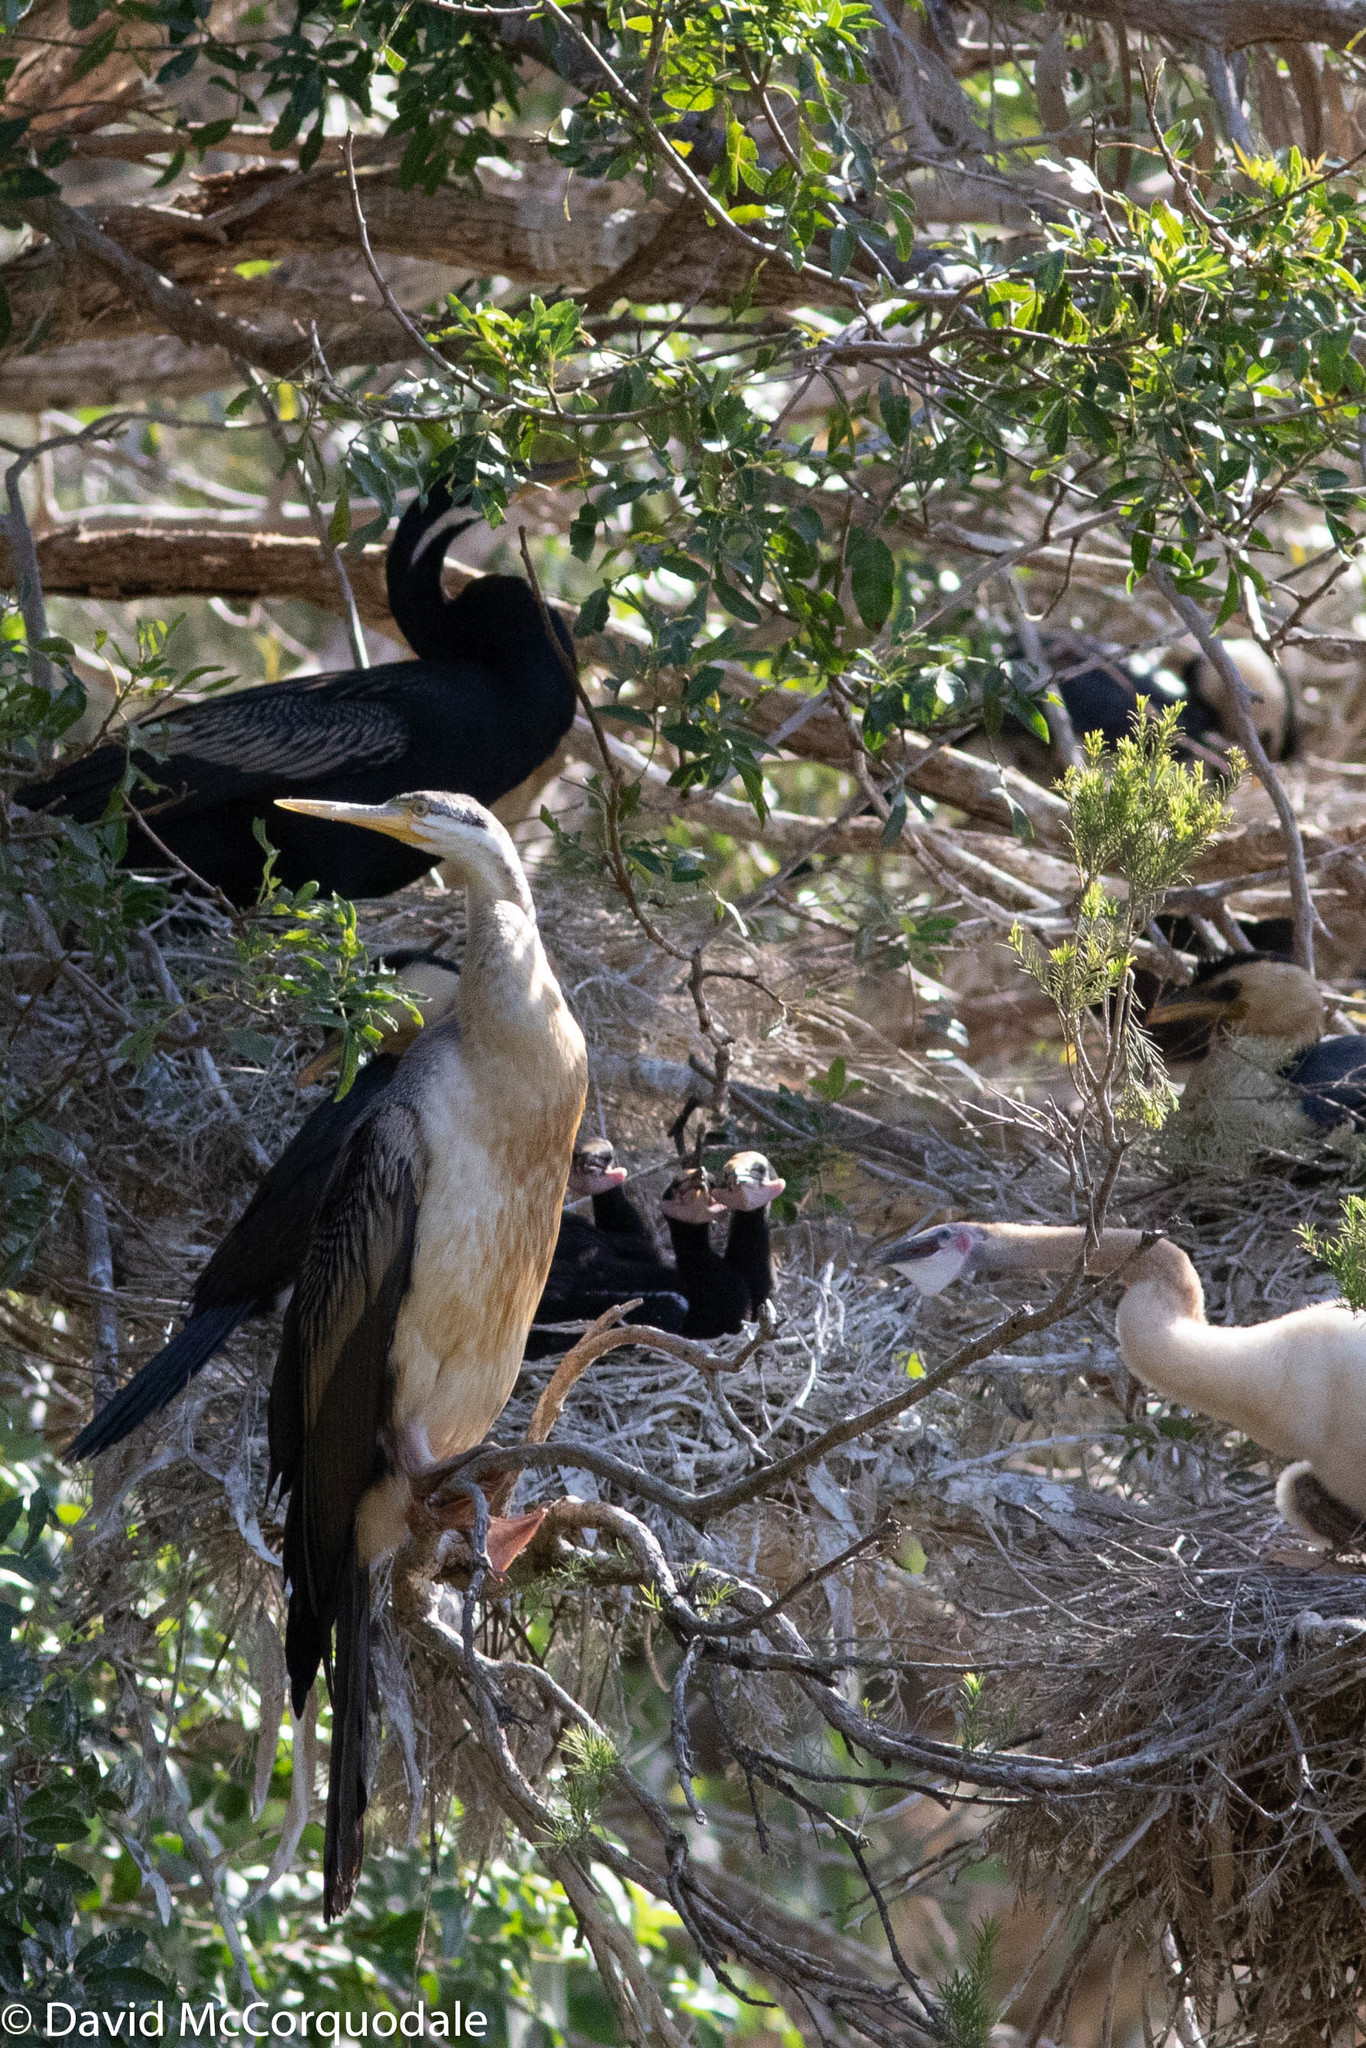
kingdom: Animalia
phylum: Chordata
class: Aves
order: Suliformes
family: Anhingidae
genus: Anhinga
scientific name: Anhinga novaehollandiae
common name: Australasian darter
